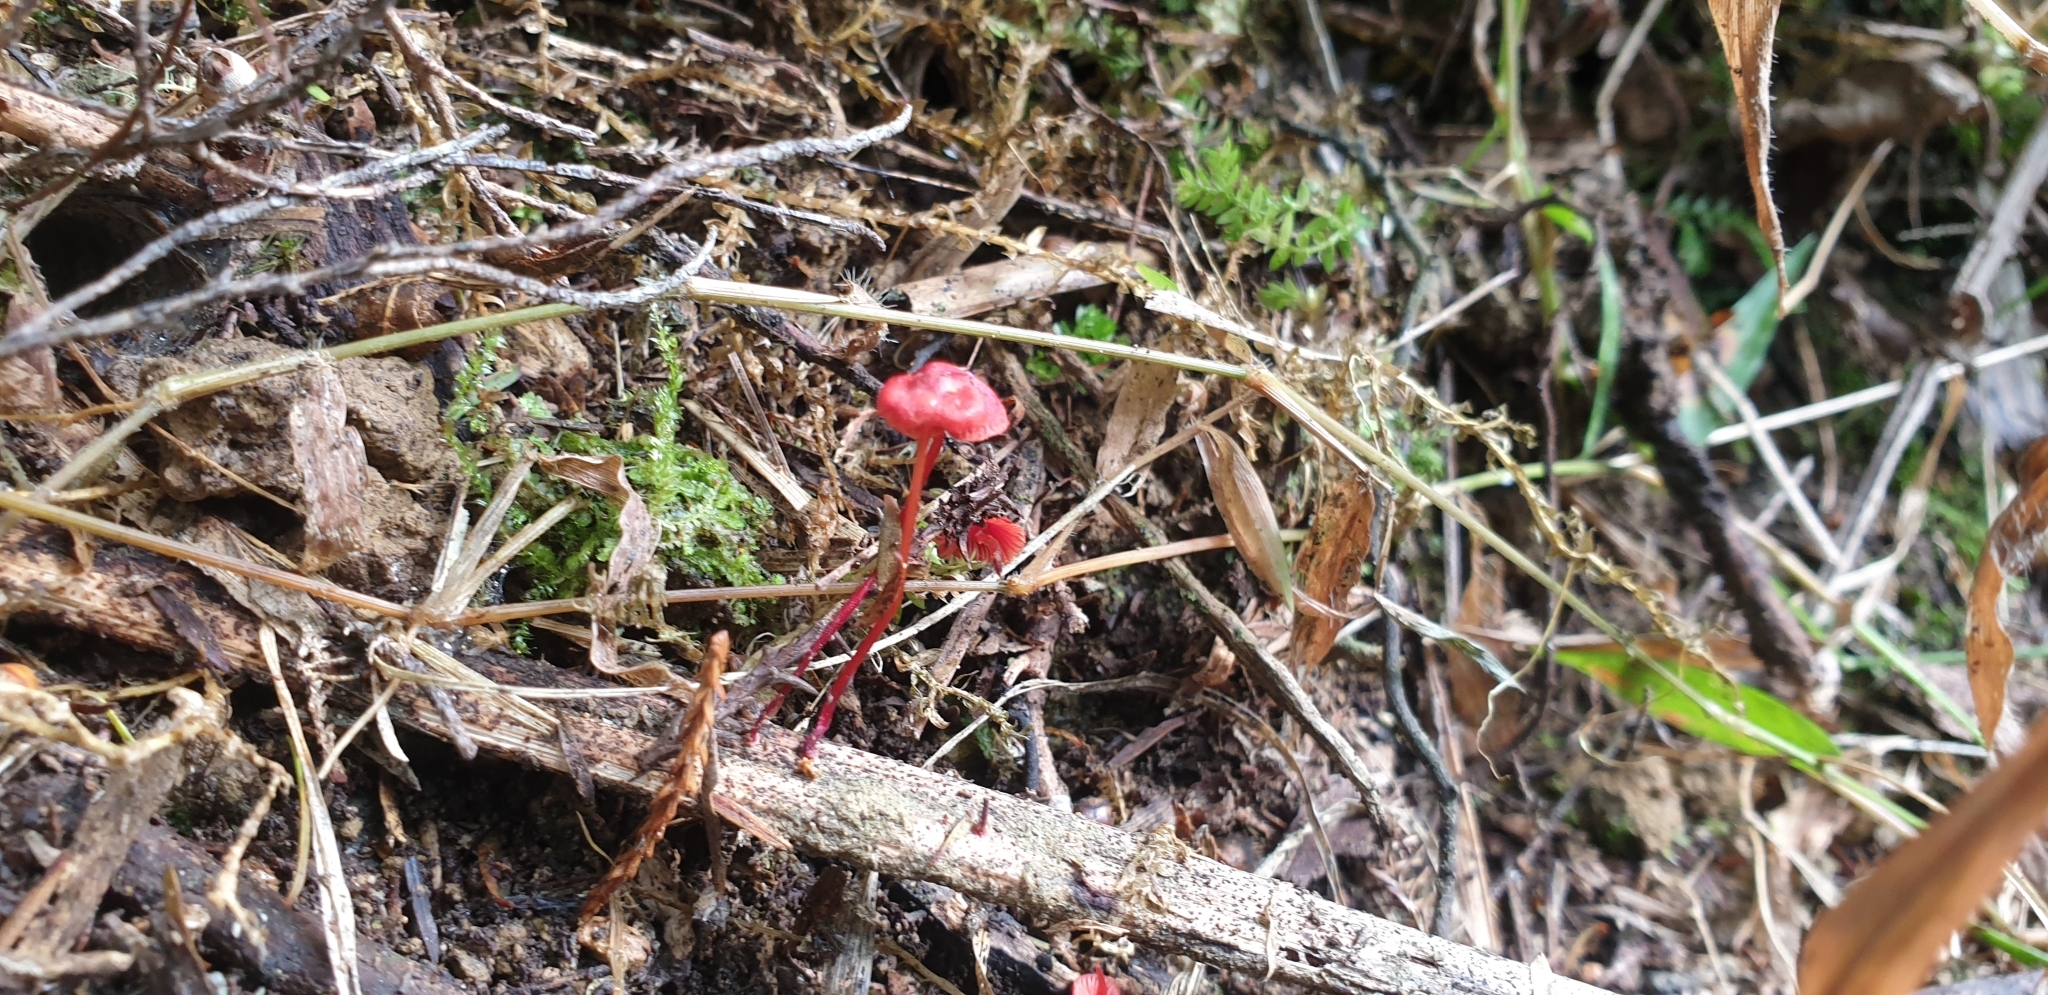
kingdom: Fungi
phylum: Basidiomycota
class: Agaricomycetes
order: Agaricales
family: Mycenaceae
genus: Cruentomycena
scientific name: Cruentomycena viscidocruenta
